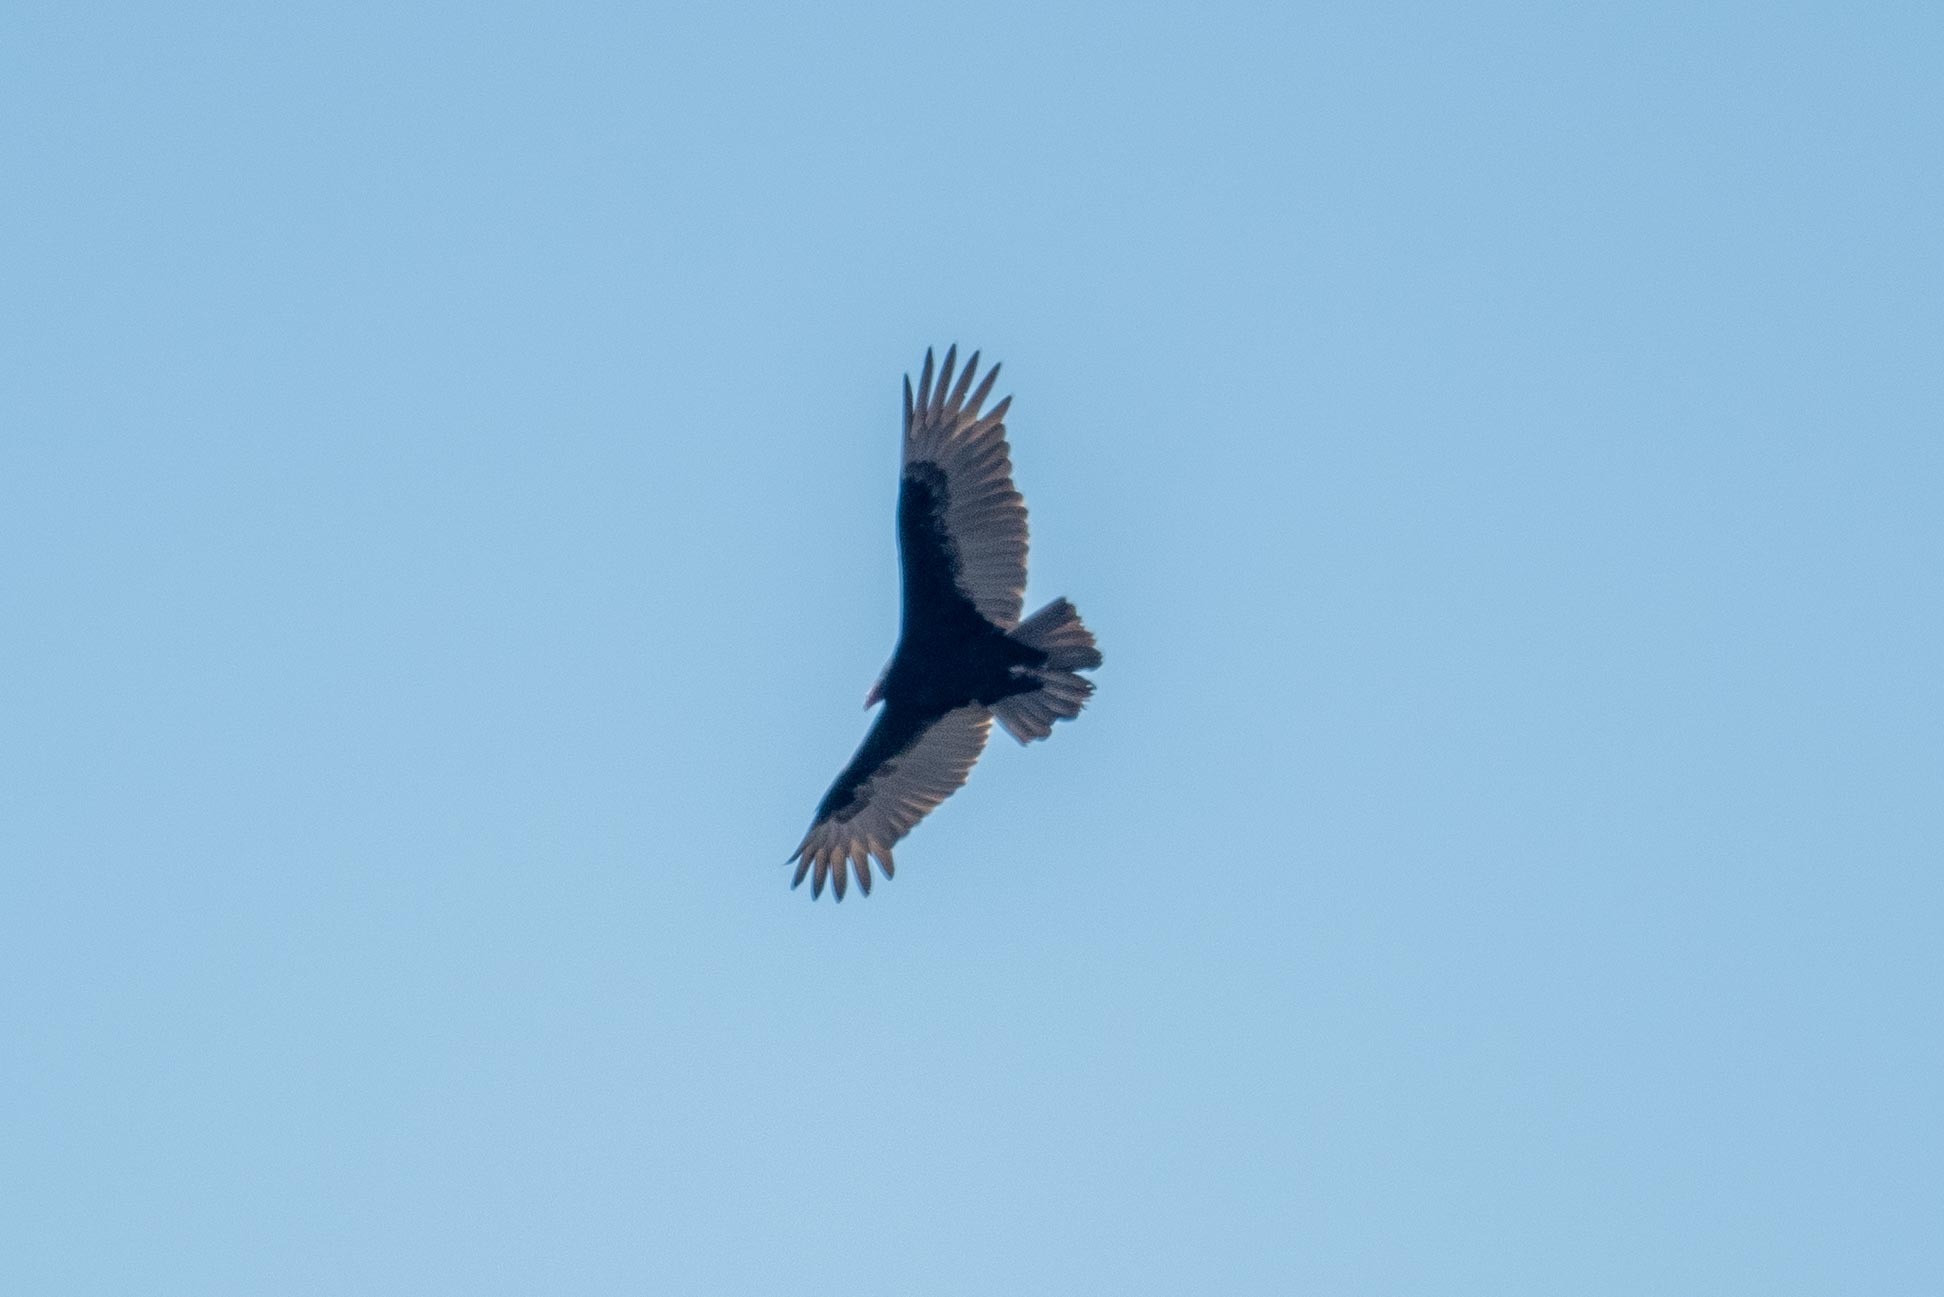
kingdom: Animalia
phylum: Chordata
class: Aves
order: Accipitriformes
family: Cathartidae
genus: Cathartes
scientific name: Cathartes aura
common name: Turkey vulture
